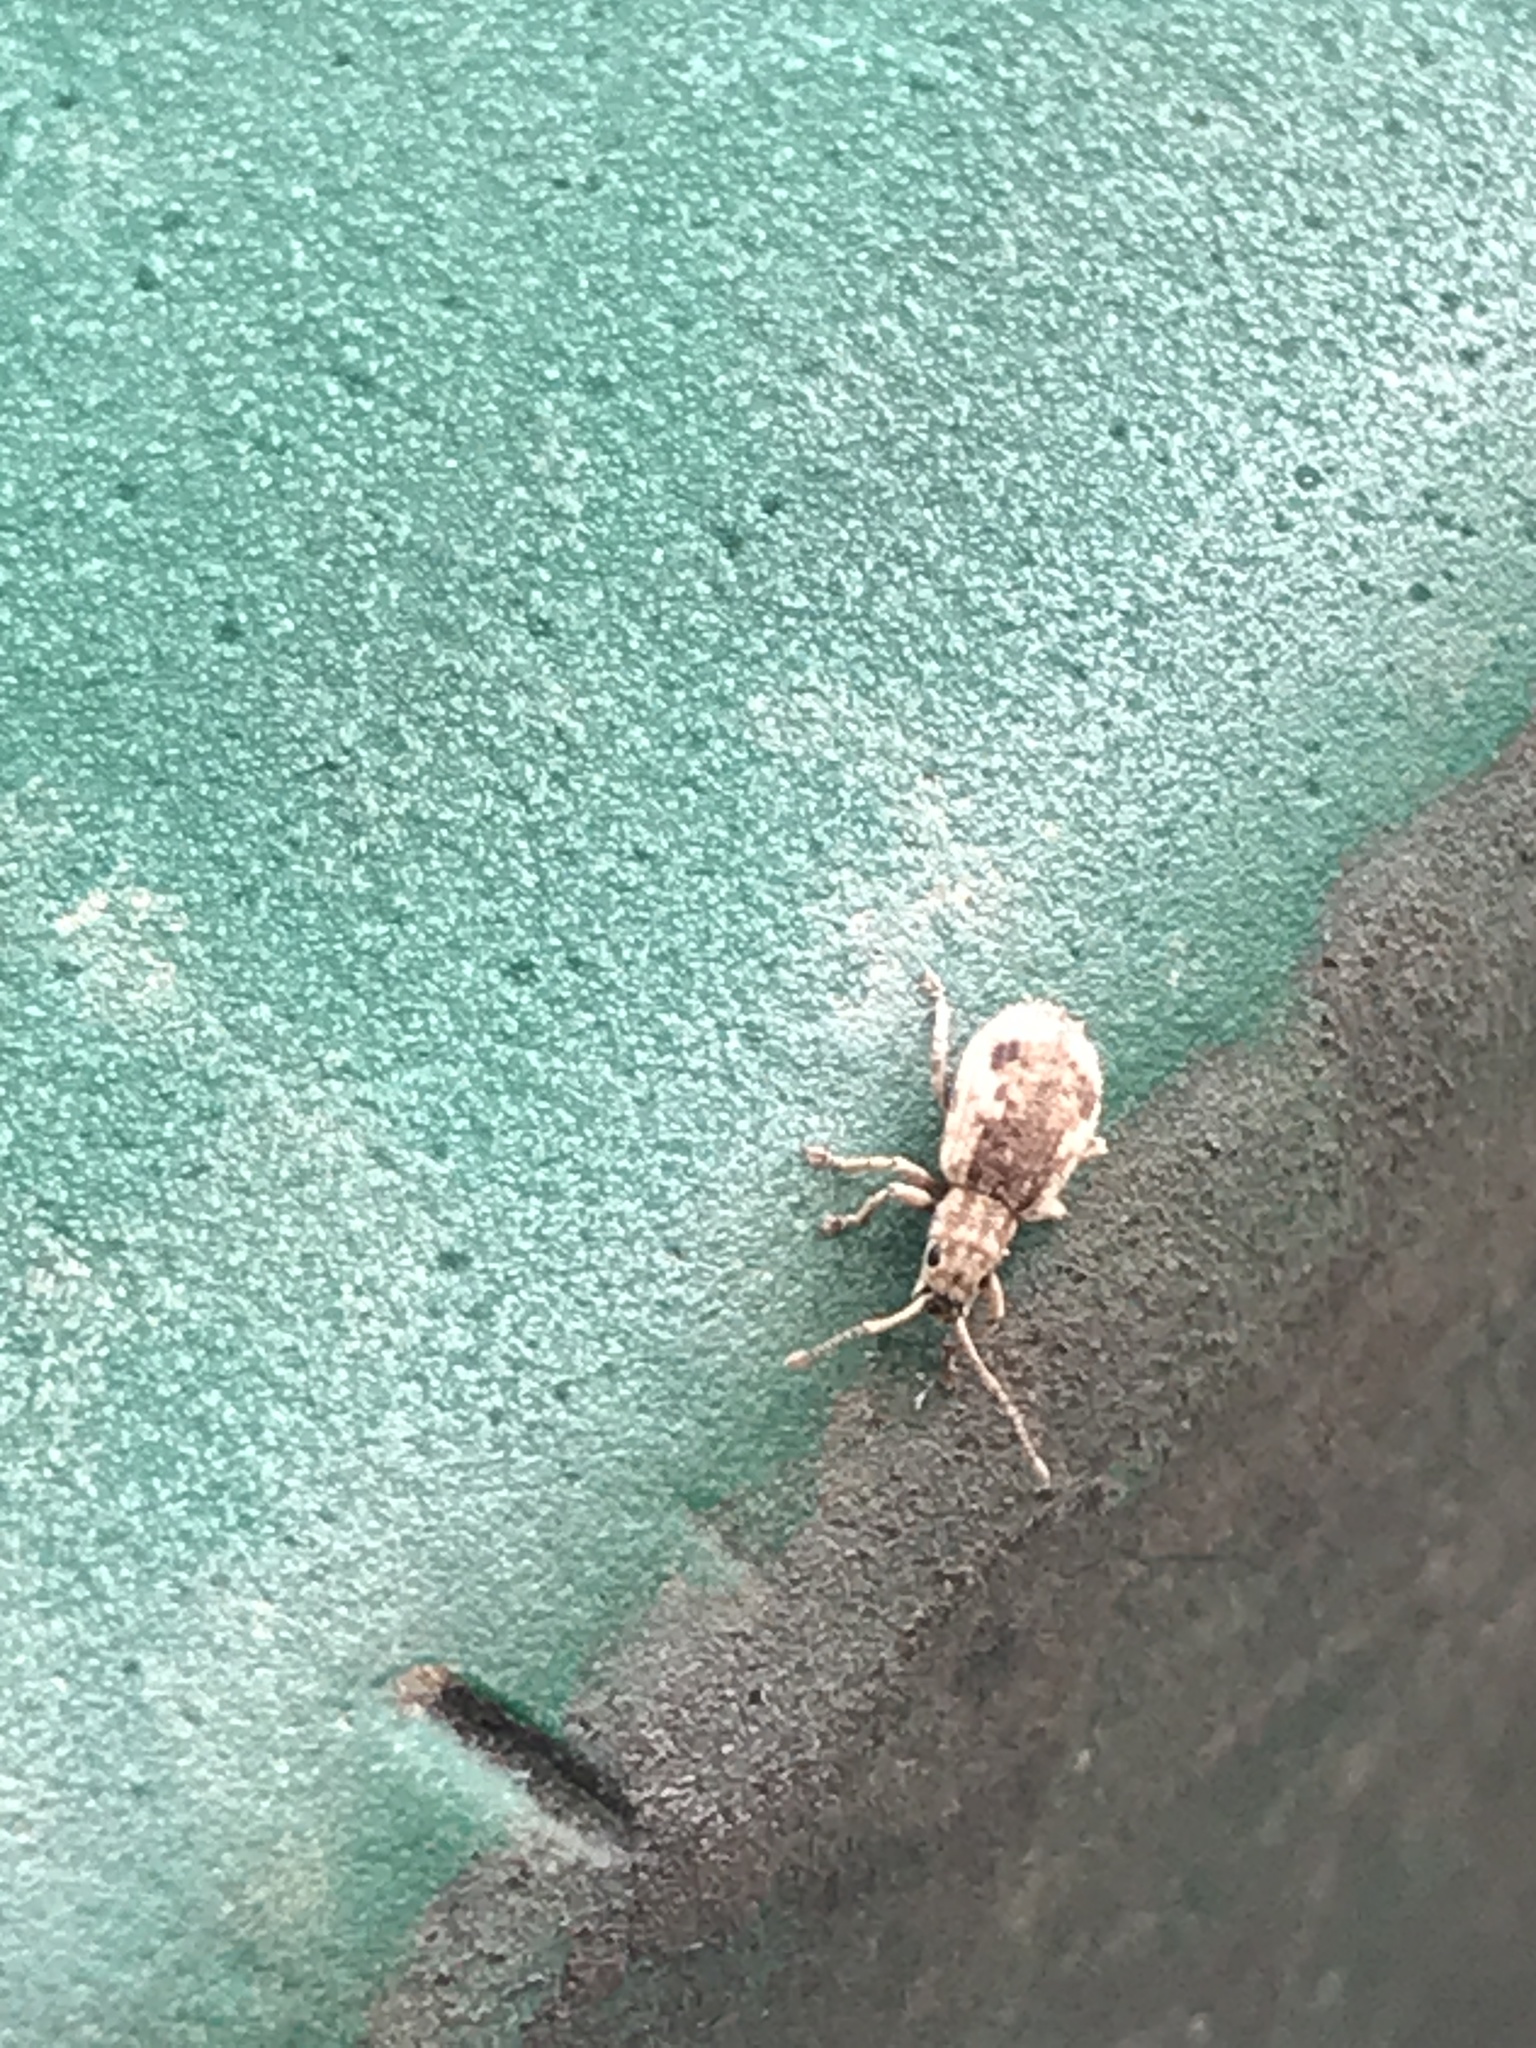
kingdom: Animalia
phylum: Arthropoda
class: Insecta
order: Coleoptera
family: Curculionidae
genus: Pseudoedophrys
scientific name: Pseudoedophrys hilleri
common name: Weevil
